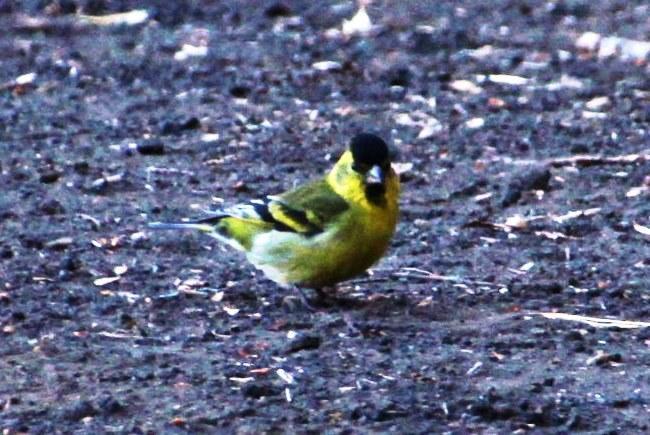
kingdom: Animalia
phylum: Chordata
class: Aves
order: Passeriformes
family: Fringillidae
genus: Spinus
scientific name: Spinus barbatus
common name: Black-chinned siskin
